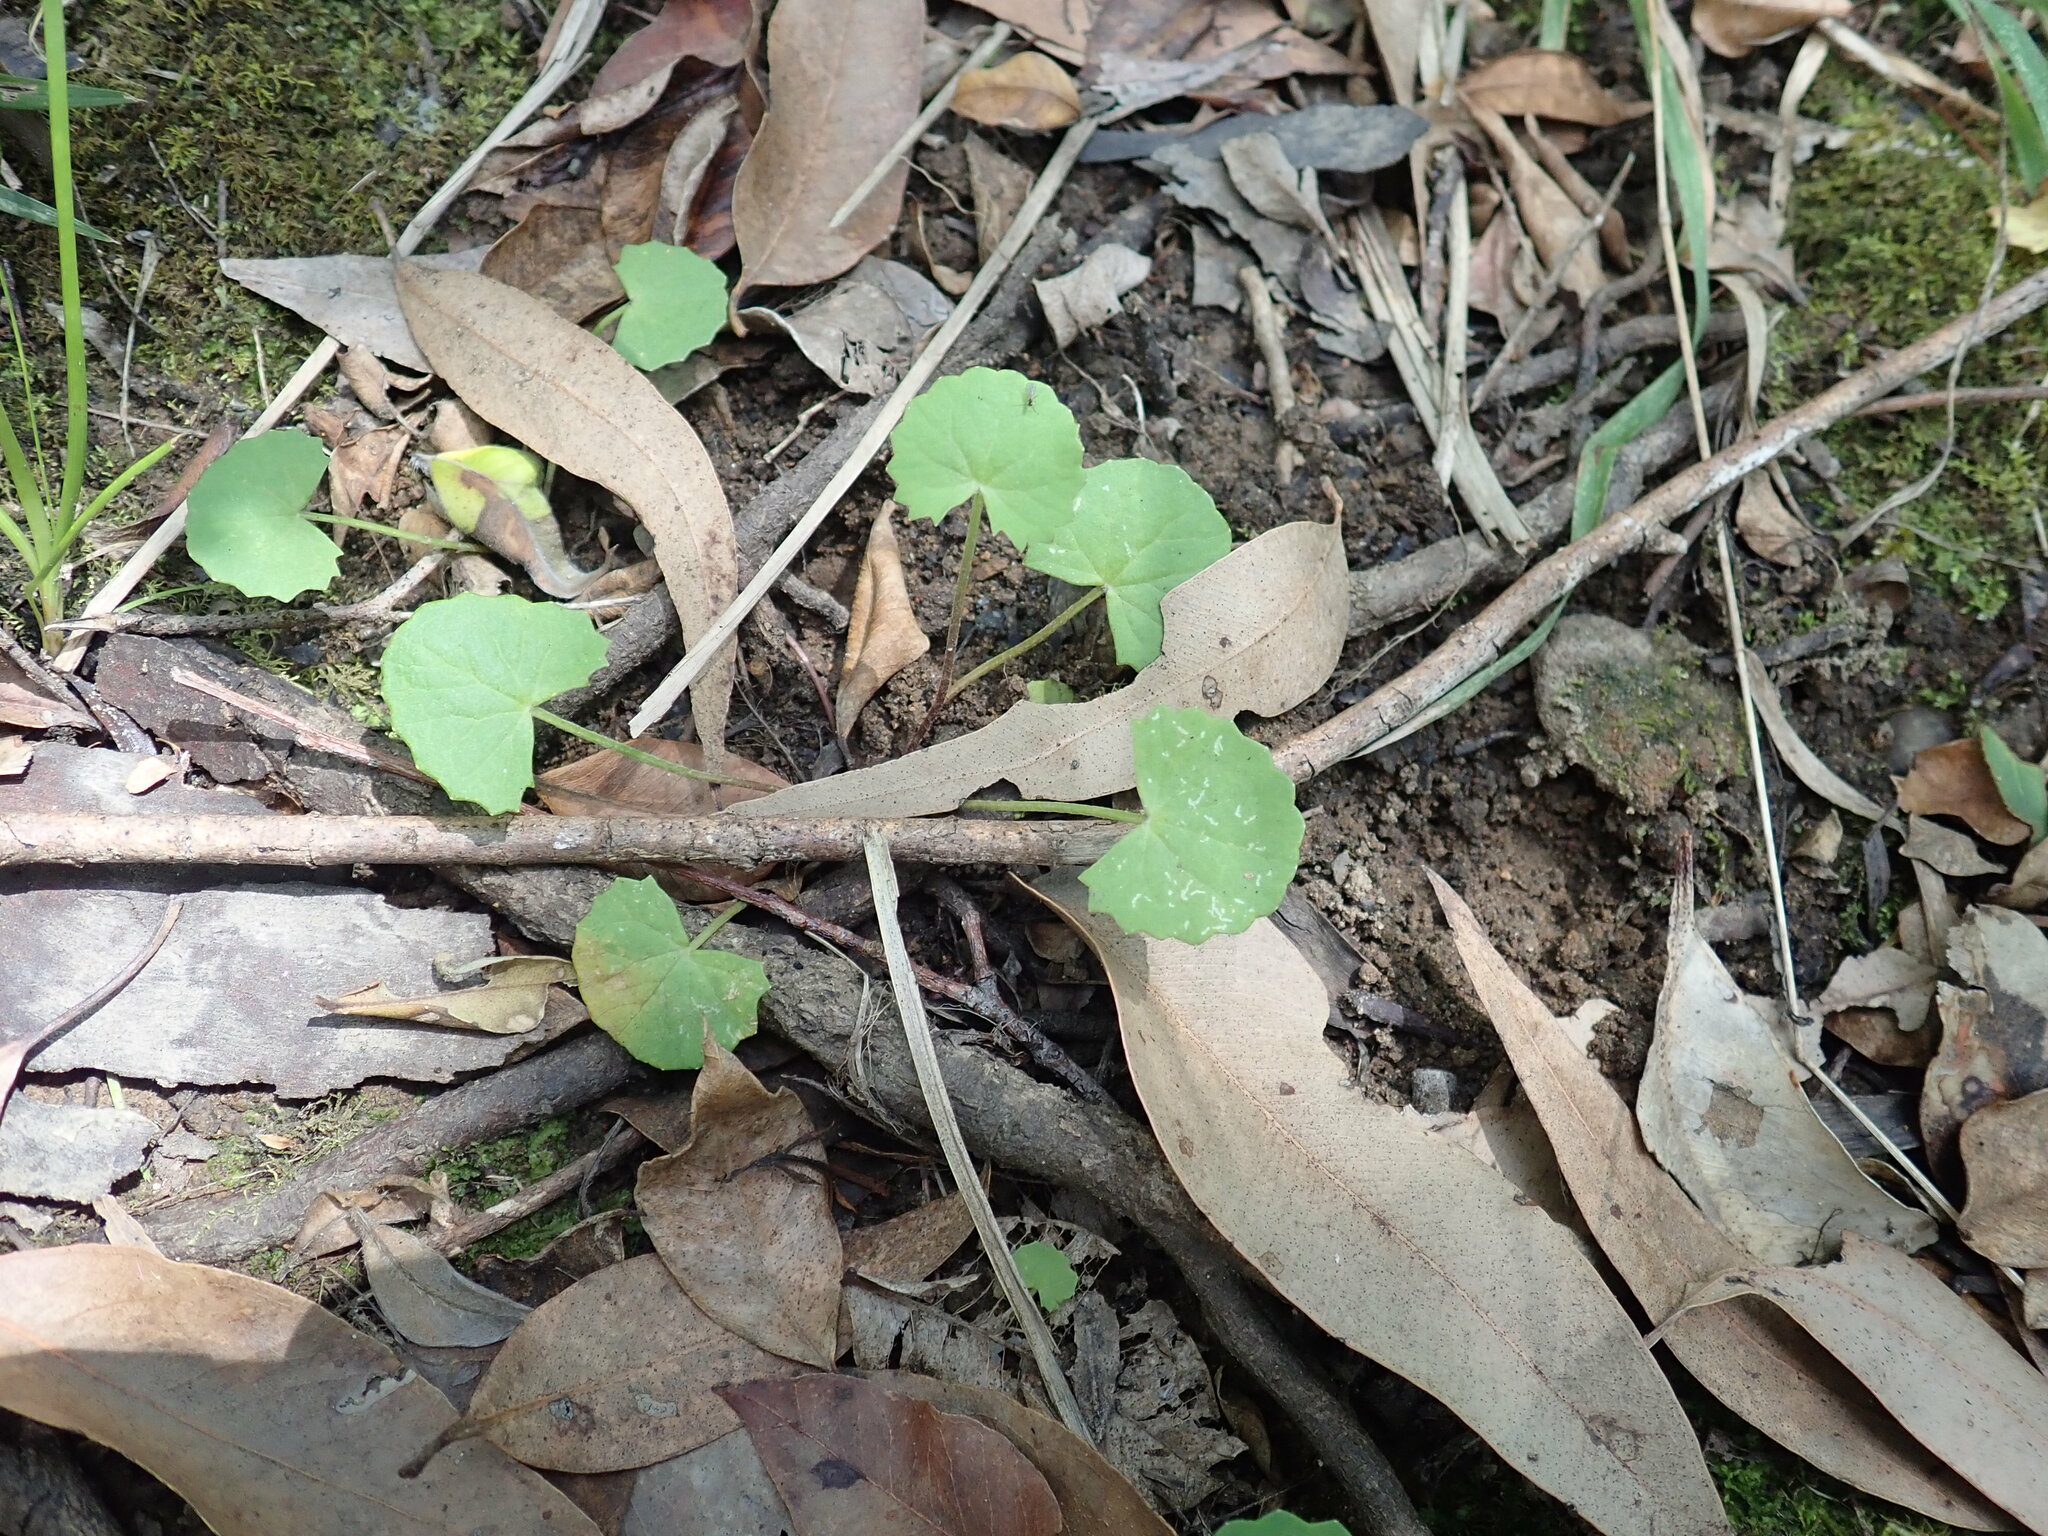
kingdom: Plantae
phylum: Tracheophyta
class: Magnoliopsida
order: Apiales
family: Apiaceae
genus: Centella
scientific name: Centella asiatica
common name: Spadeleaf
